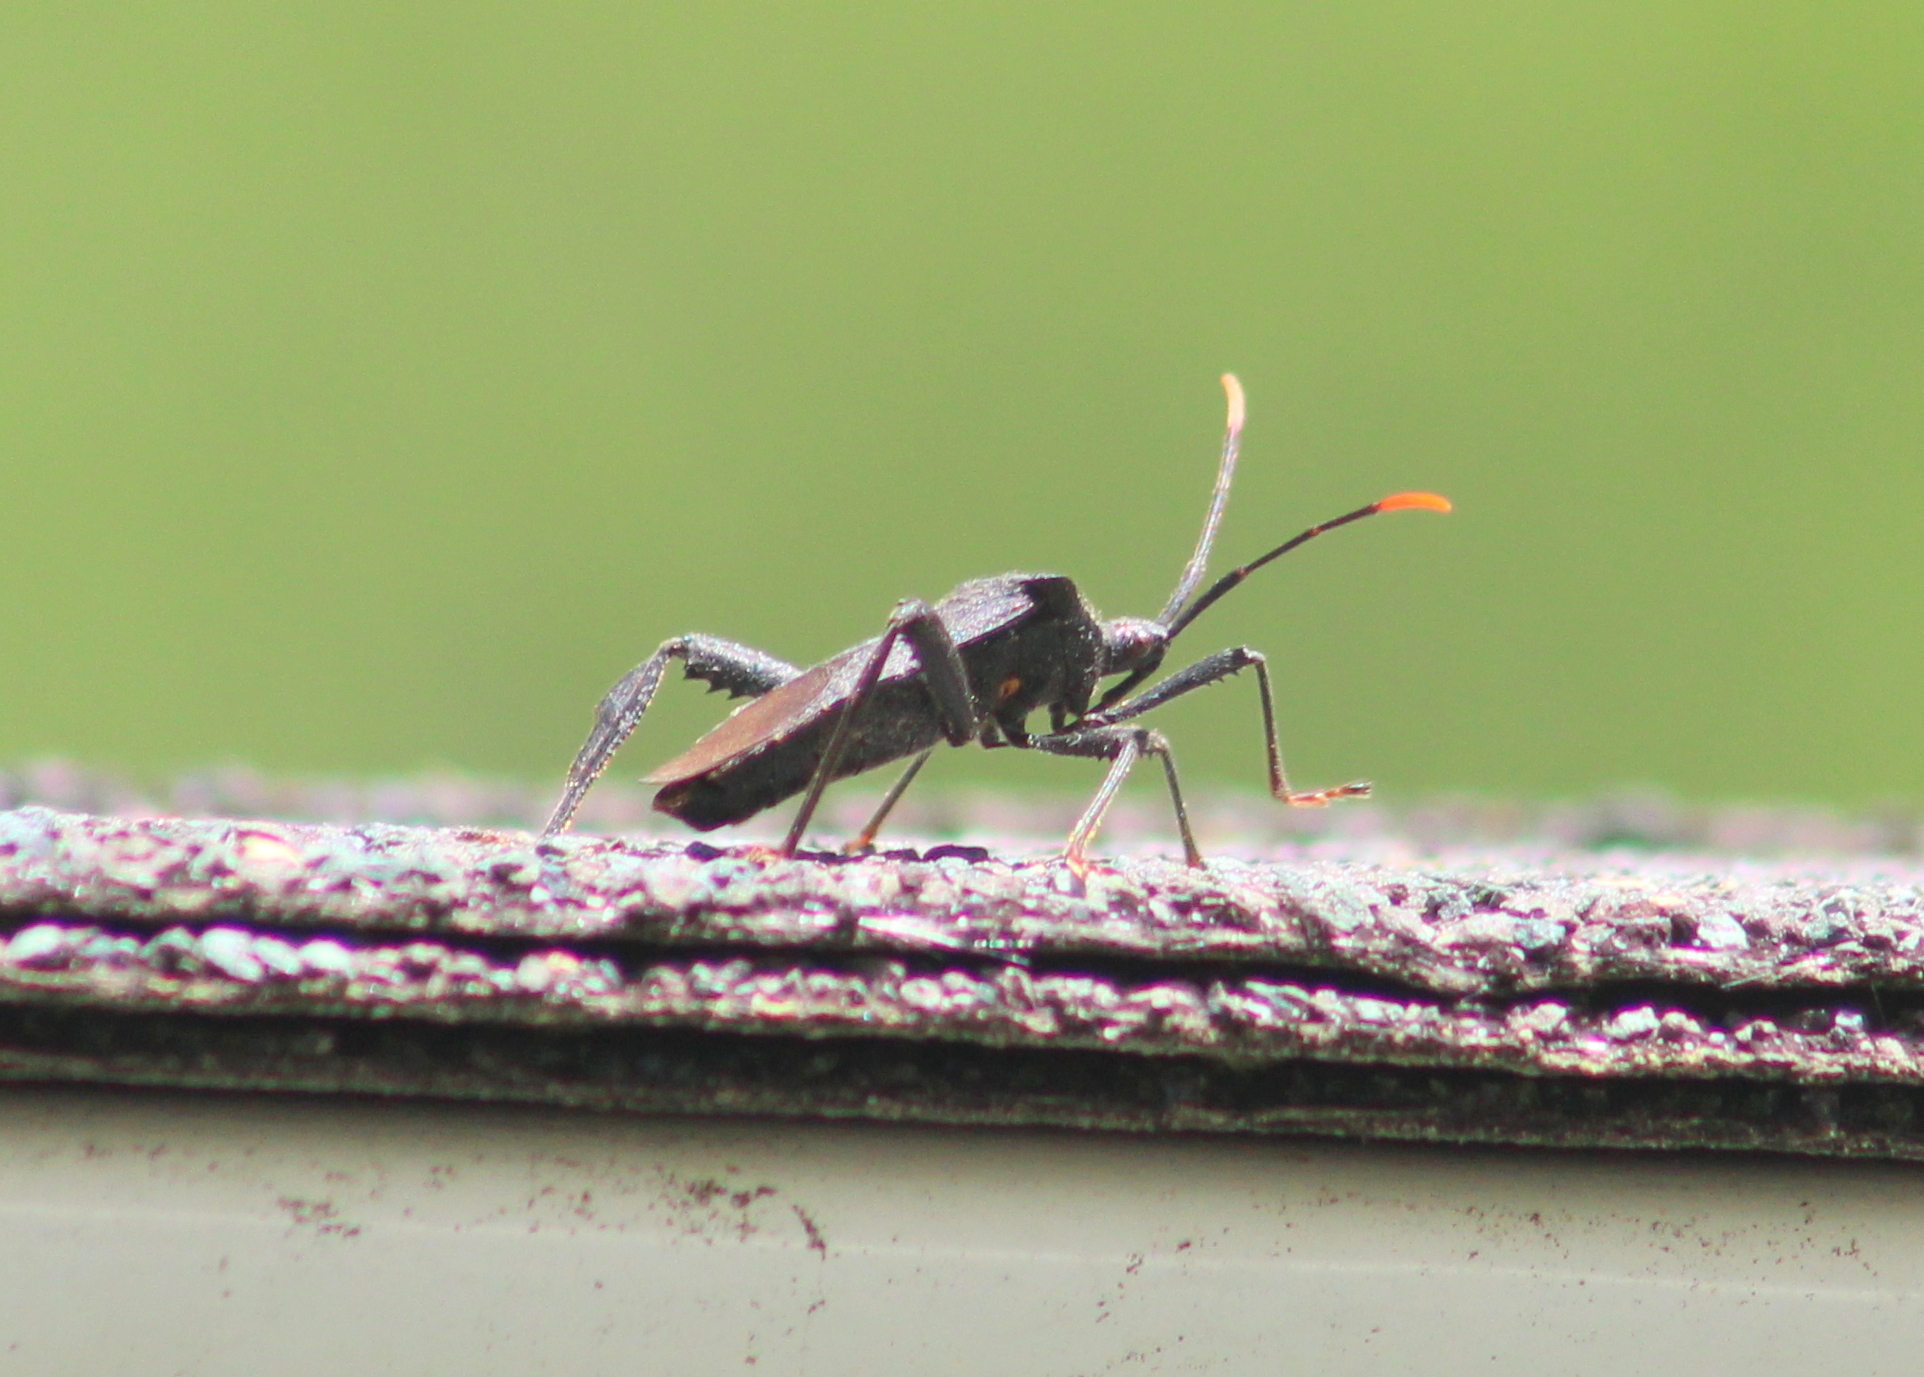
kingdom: Animalia
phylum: Arthropoda
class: Insecta
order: Hemiptera
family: Coreidae
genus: Acanthocephala
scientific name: Acanthocephala terminalis
